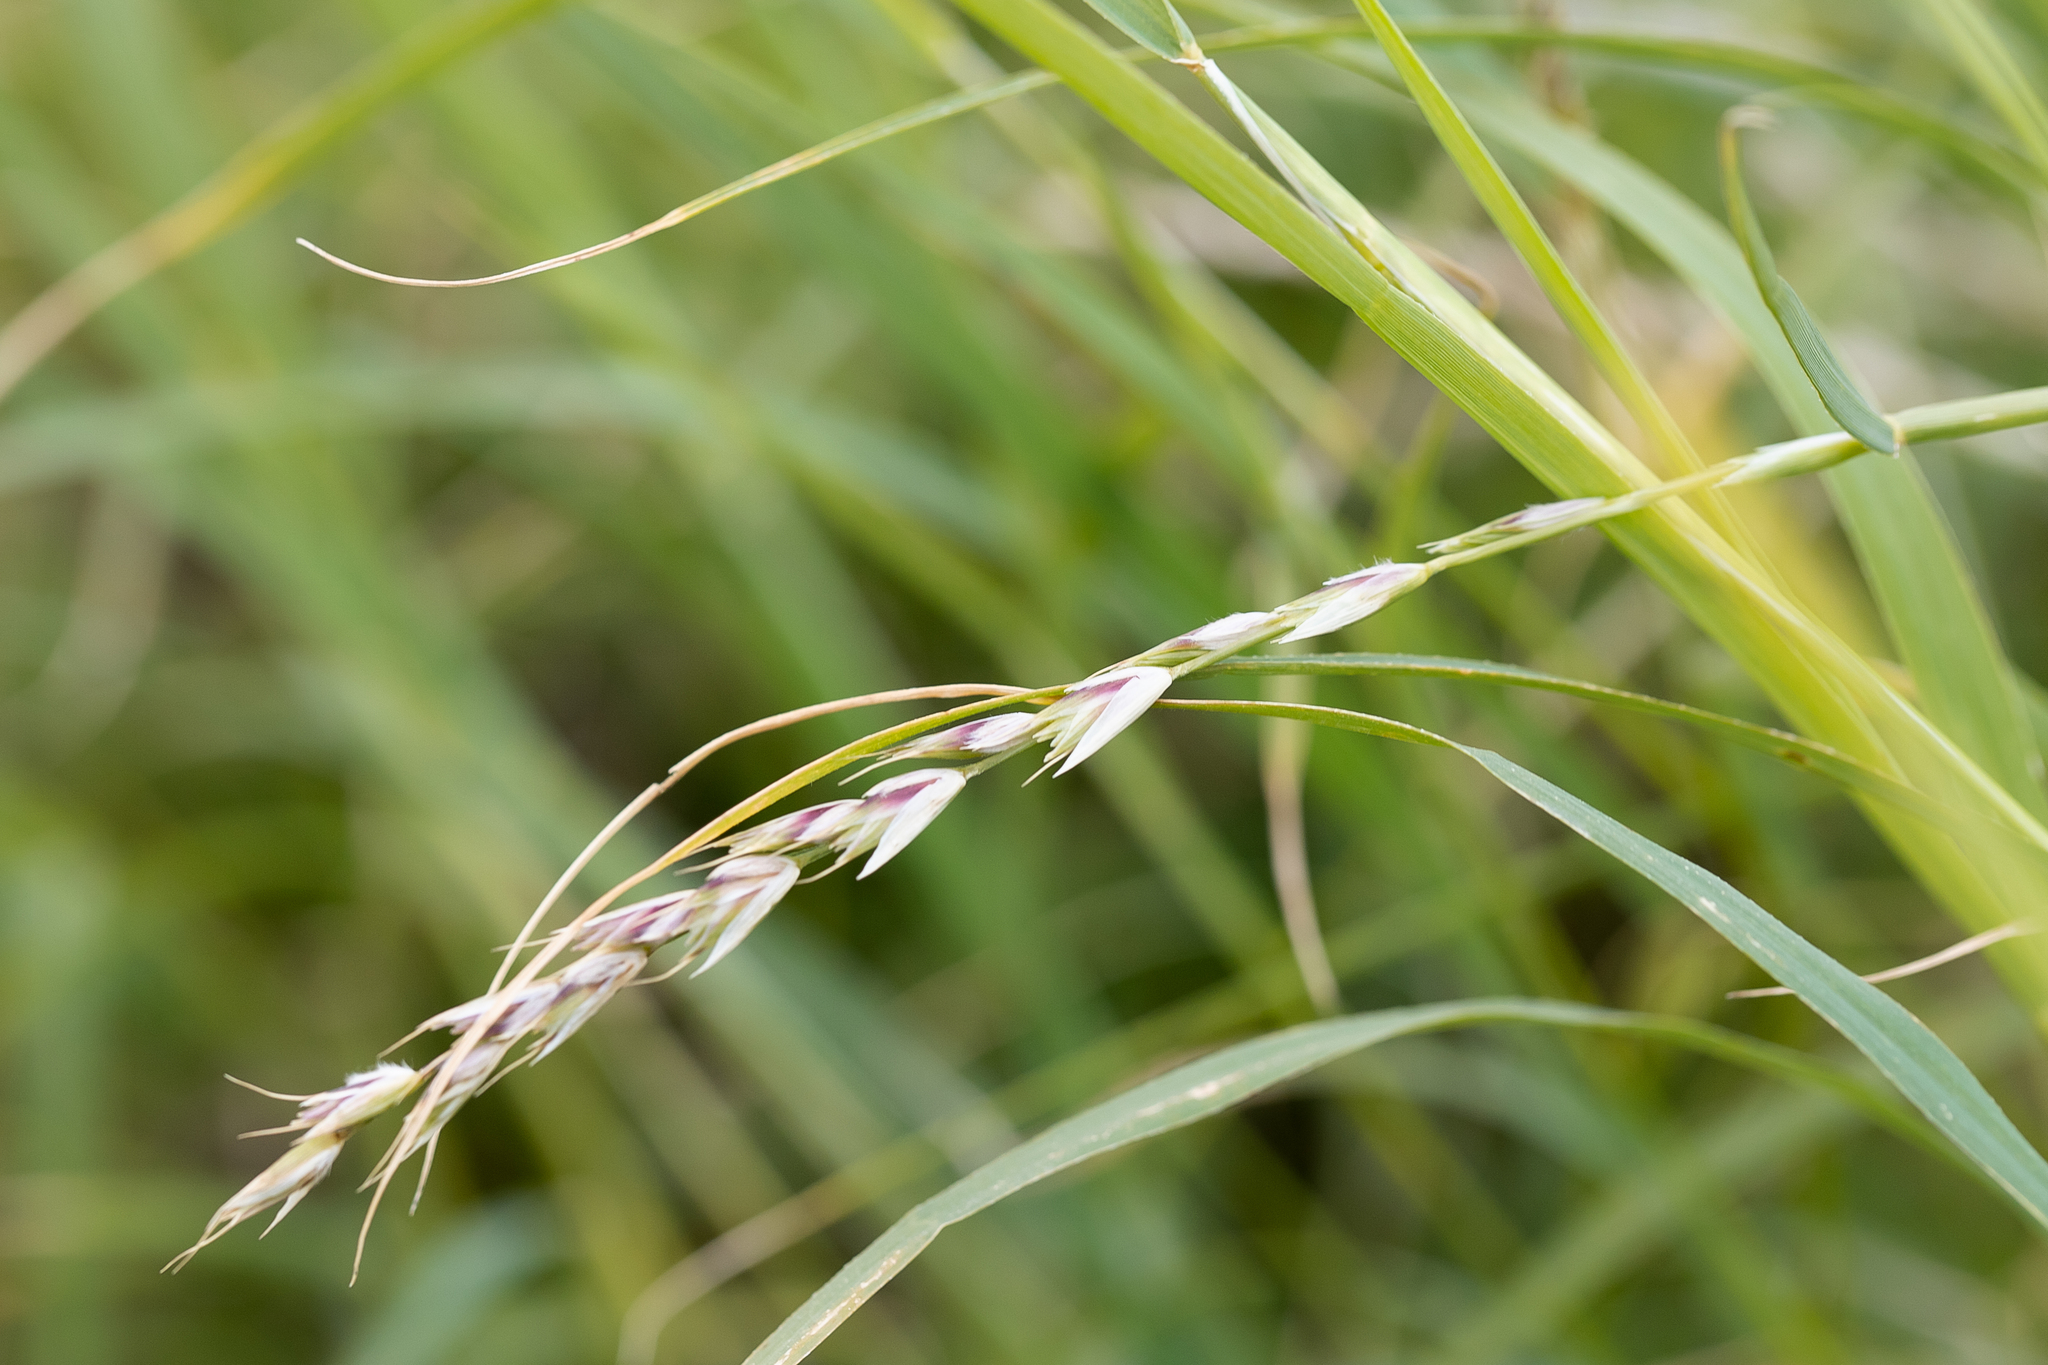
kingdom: Plantae
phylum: Tracheophyta
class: Liliopsida
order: Poales
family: Poaceae
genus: Astrebla
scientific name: Astrebla lappacea
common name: Curly mitchell grass
